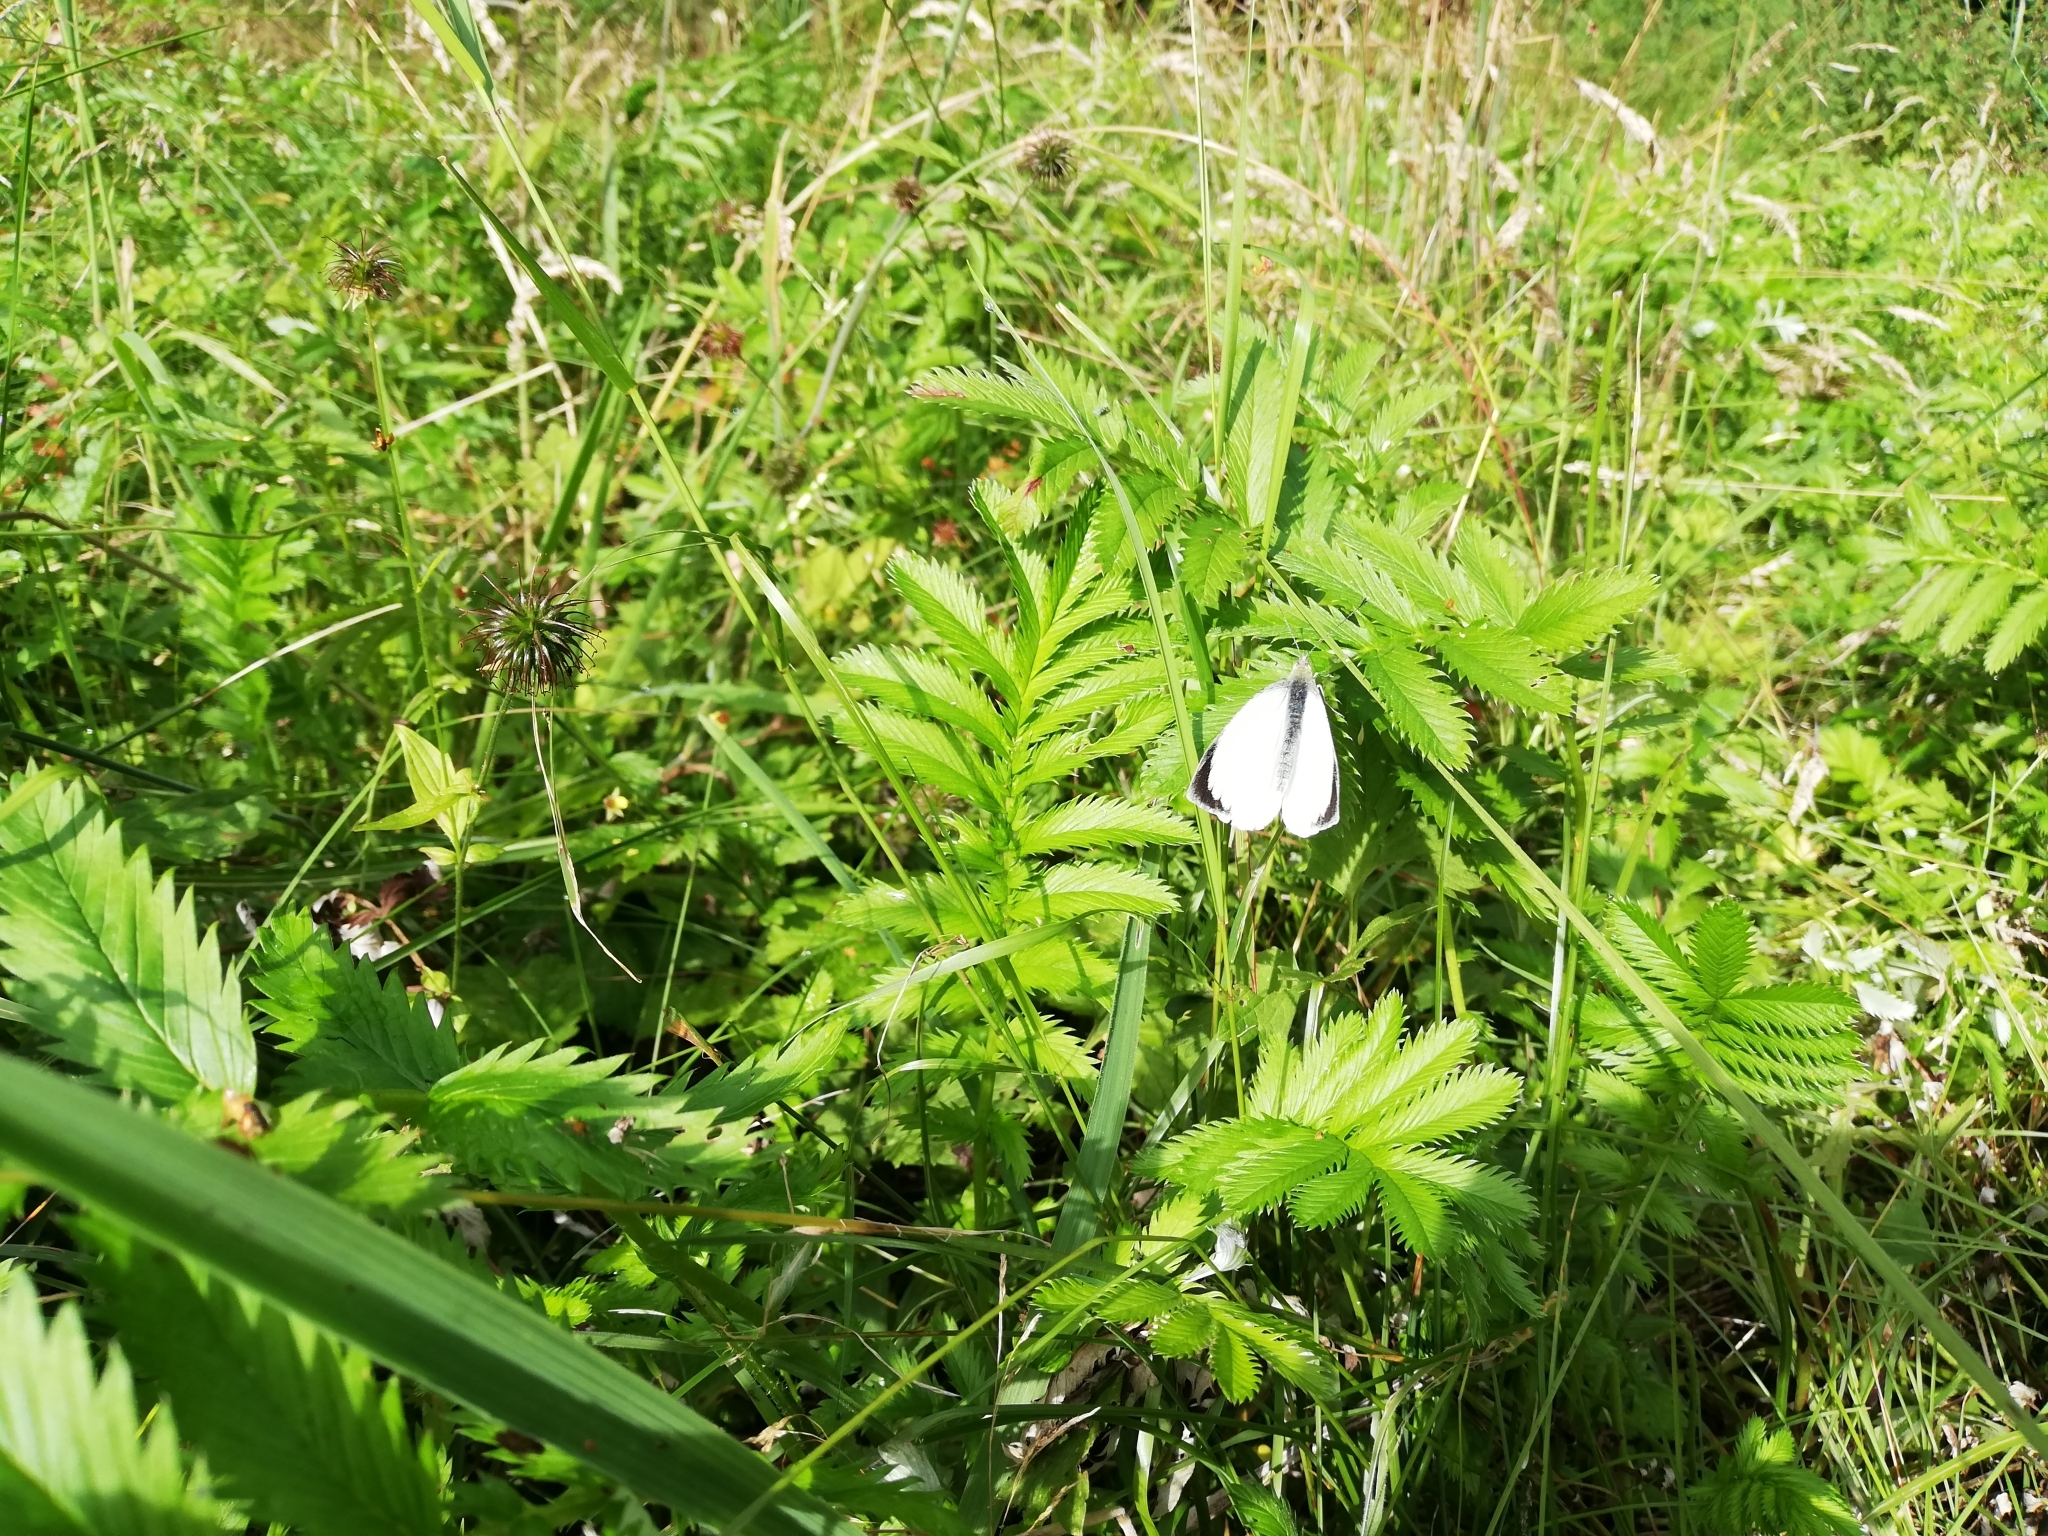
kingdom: Animalia
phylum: Arthropoda
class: Insecta
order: Lepidoptera
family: Pieridae
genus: Pieris
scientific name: Pieris brassicae
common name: Large white
